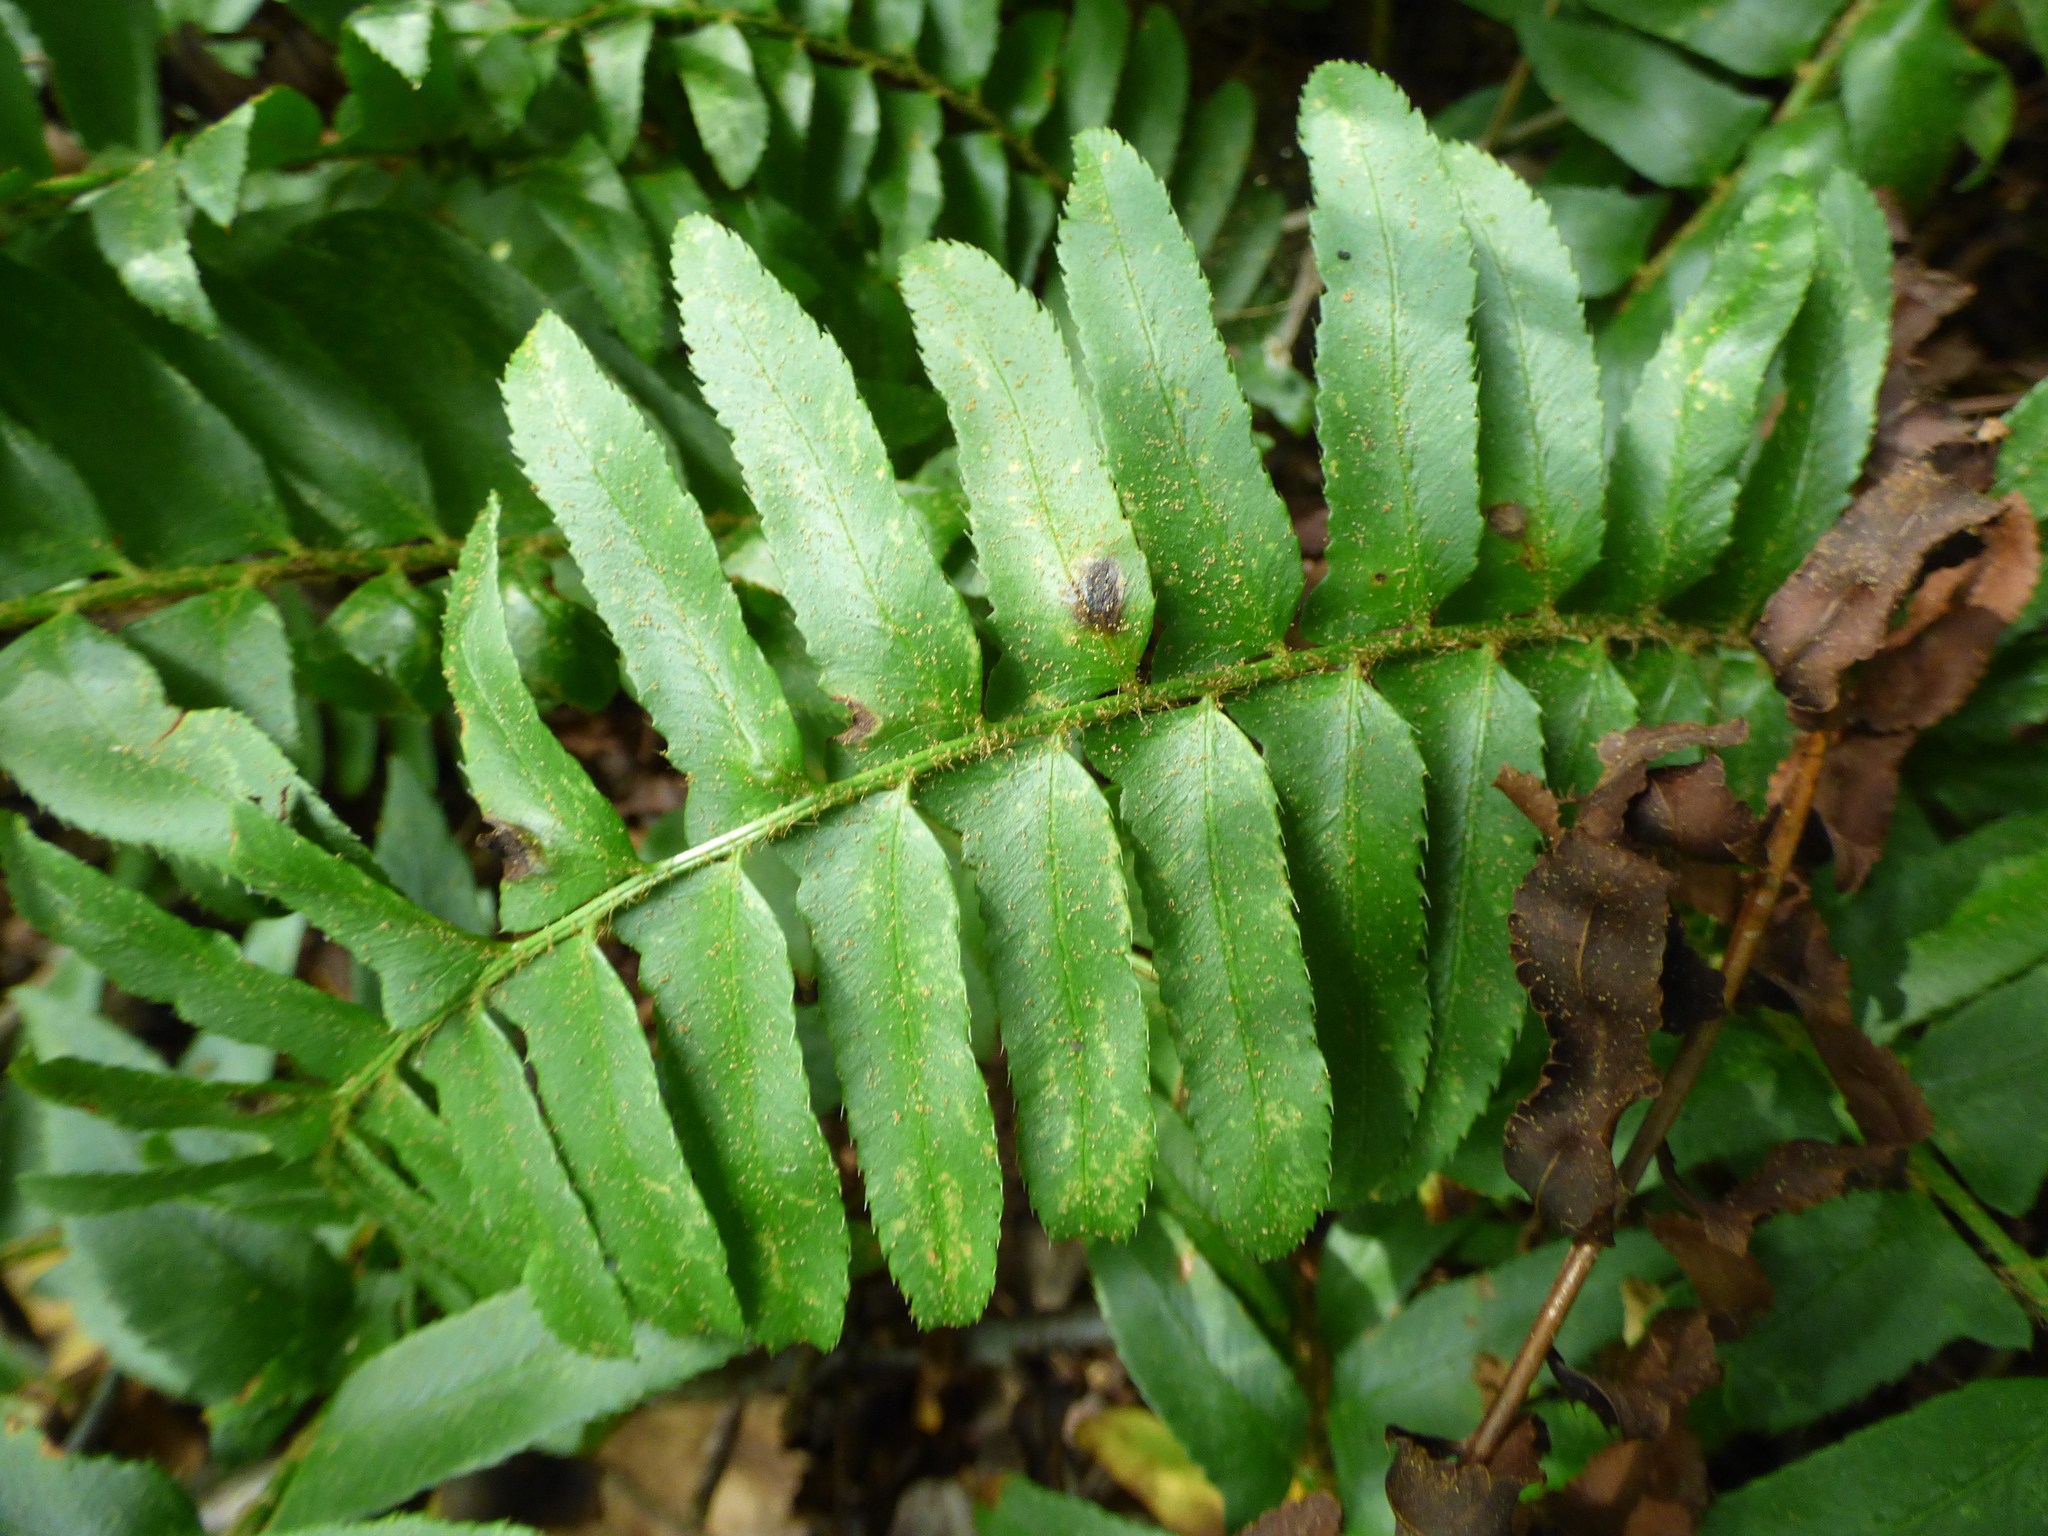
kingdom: Plantae
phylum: Tracheophyta
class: Polypodiopsida
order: Polypodiales
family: Dryopteridaceae
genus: Polystichum
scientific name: Polystichum acrostichoides
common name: Christmas fern
